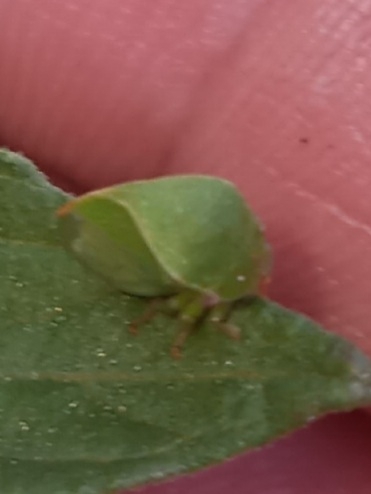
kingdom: Animalia
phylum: Arthropoda
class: Insecta
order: Hemiptera
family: Membracidae
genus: Spissistilus
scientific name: Spissistilus festina
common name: Membracid bug
